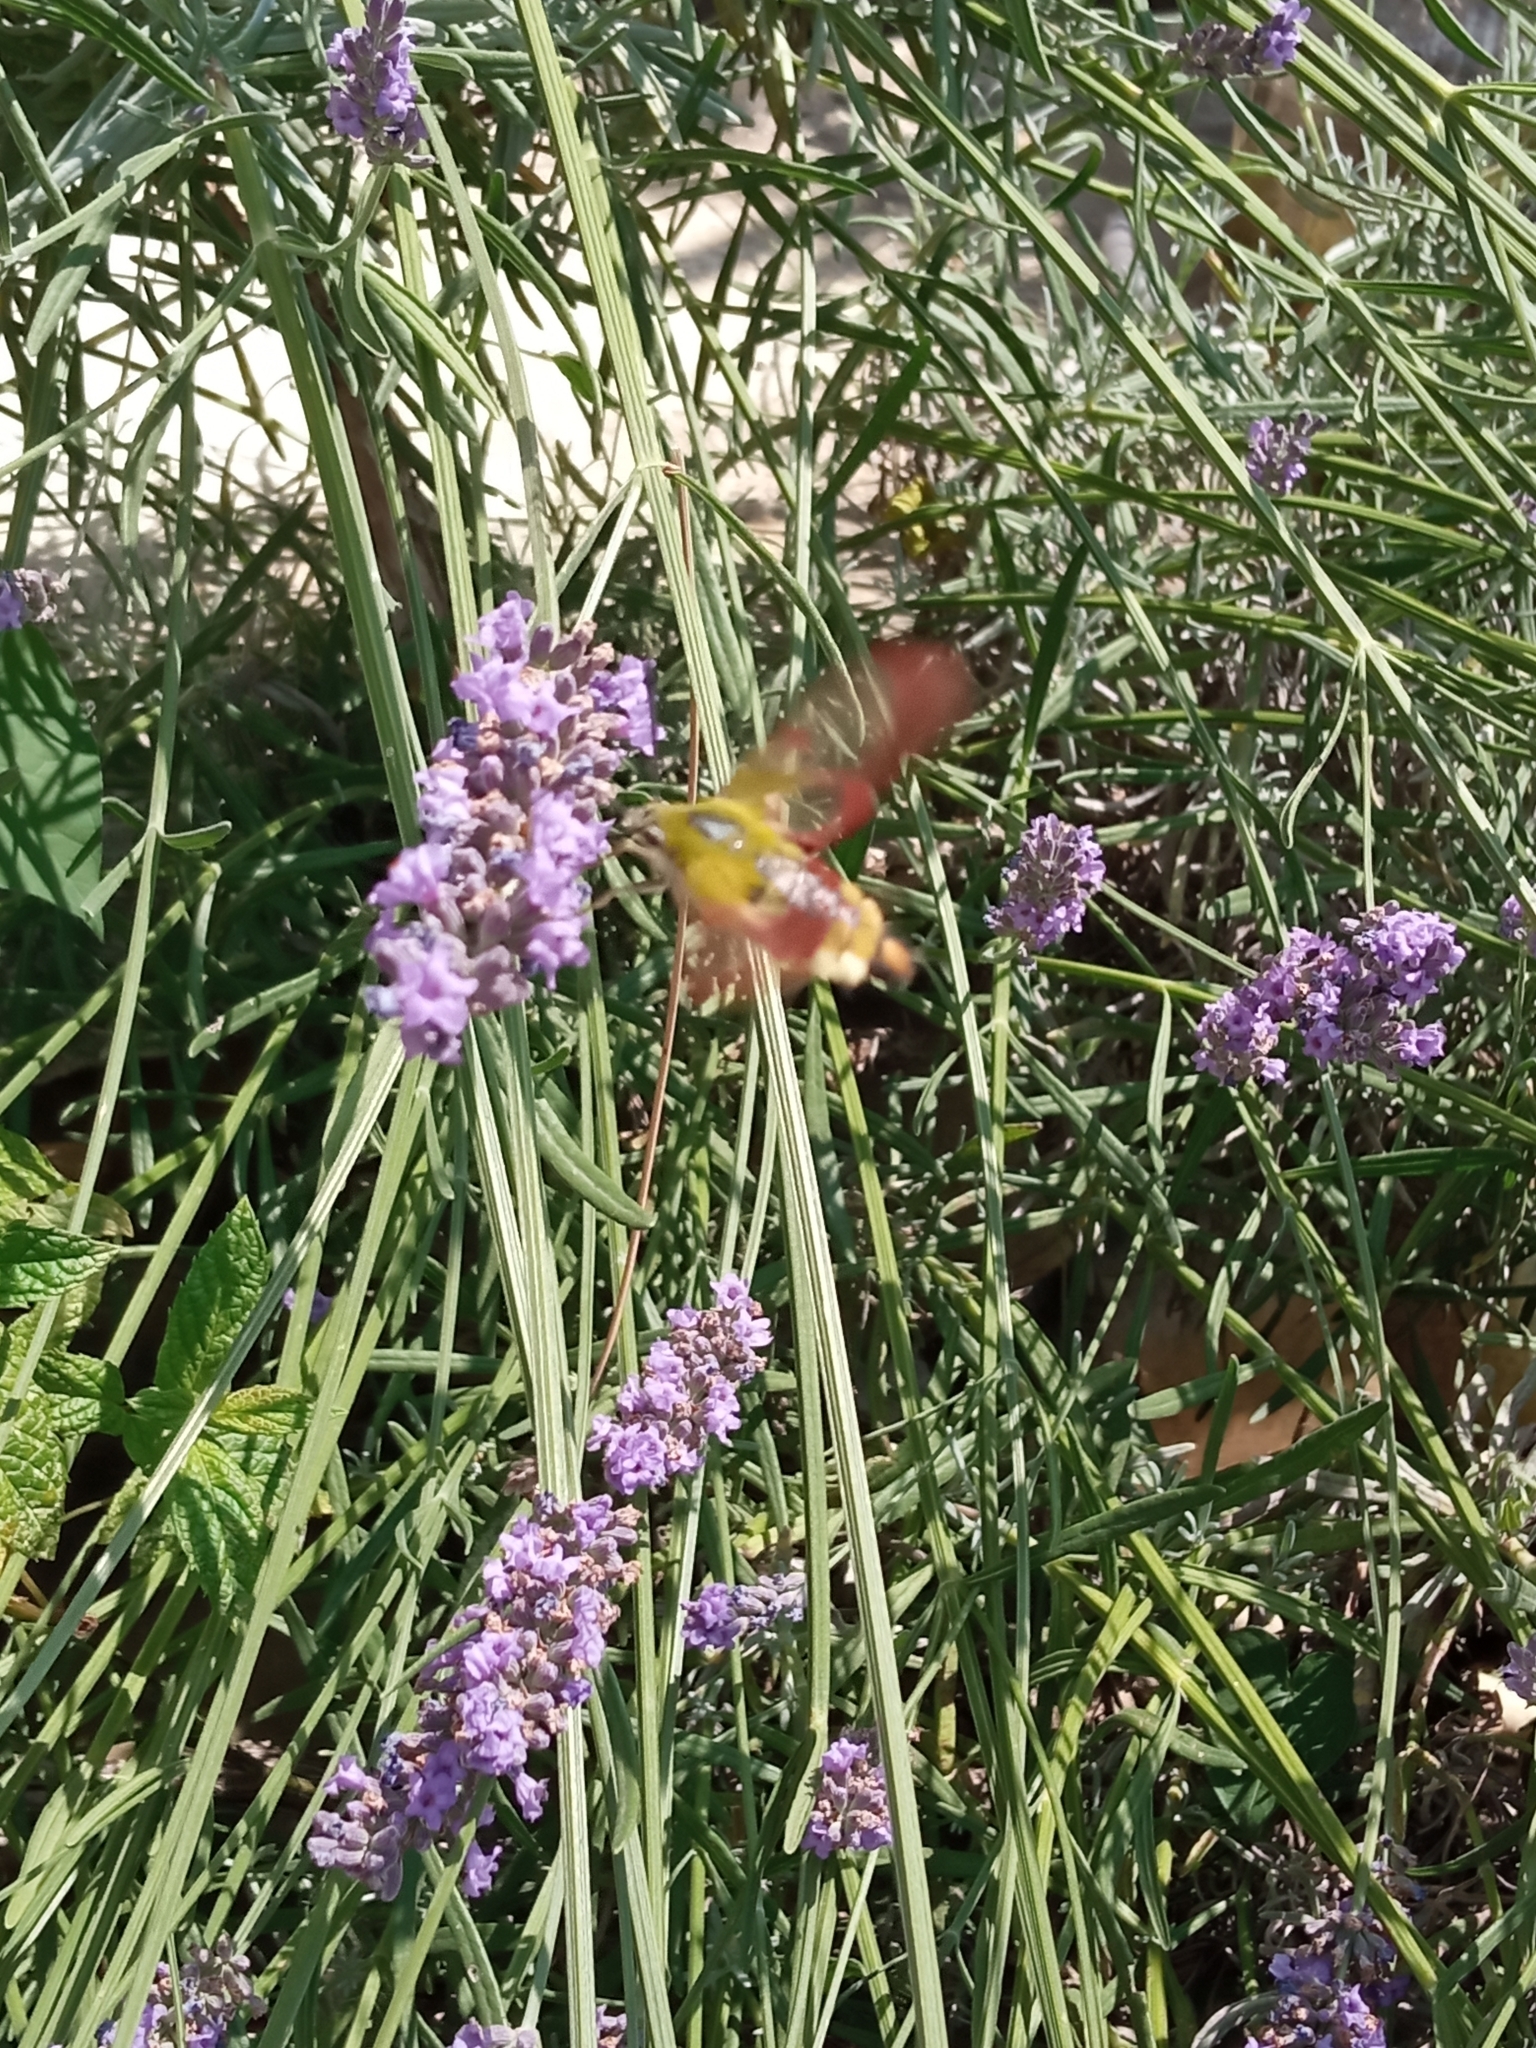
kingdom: Animalia
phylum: Arthropoda
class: Insecta
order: Lepidoptera
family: Sphingidae
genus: Hemaris
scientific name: Hemaris fuciformis
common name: Broad-bordered bee hawk-moth
